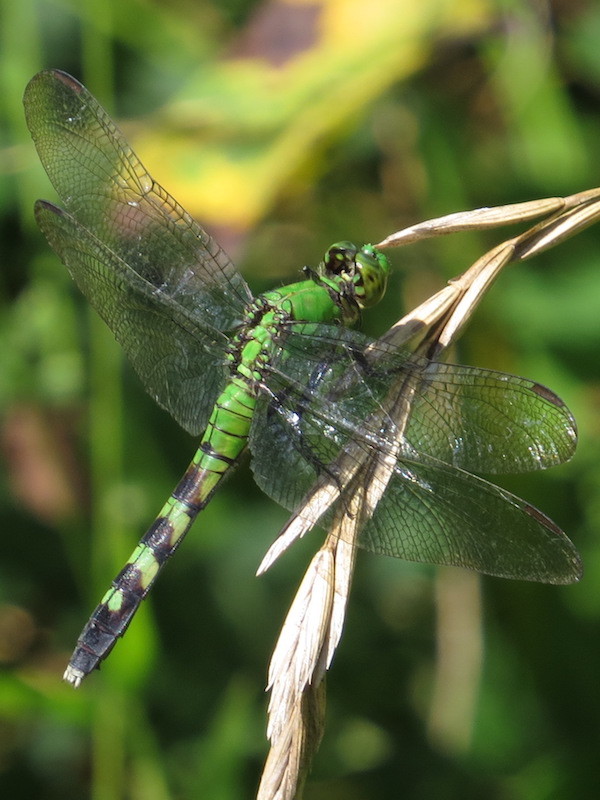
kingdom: Animalia
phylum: Arthropoda
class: Insecta
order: Odonata
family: Libellulidae
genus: Erythemis
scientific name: Erythemis simplicicollis
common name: Eastern pondhawk
